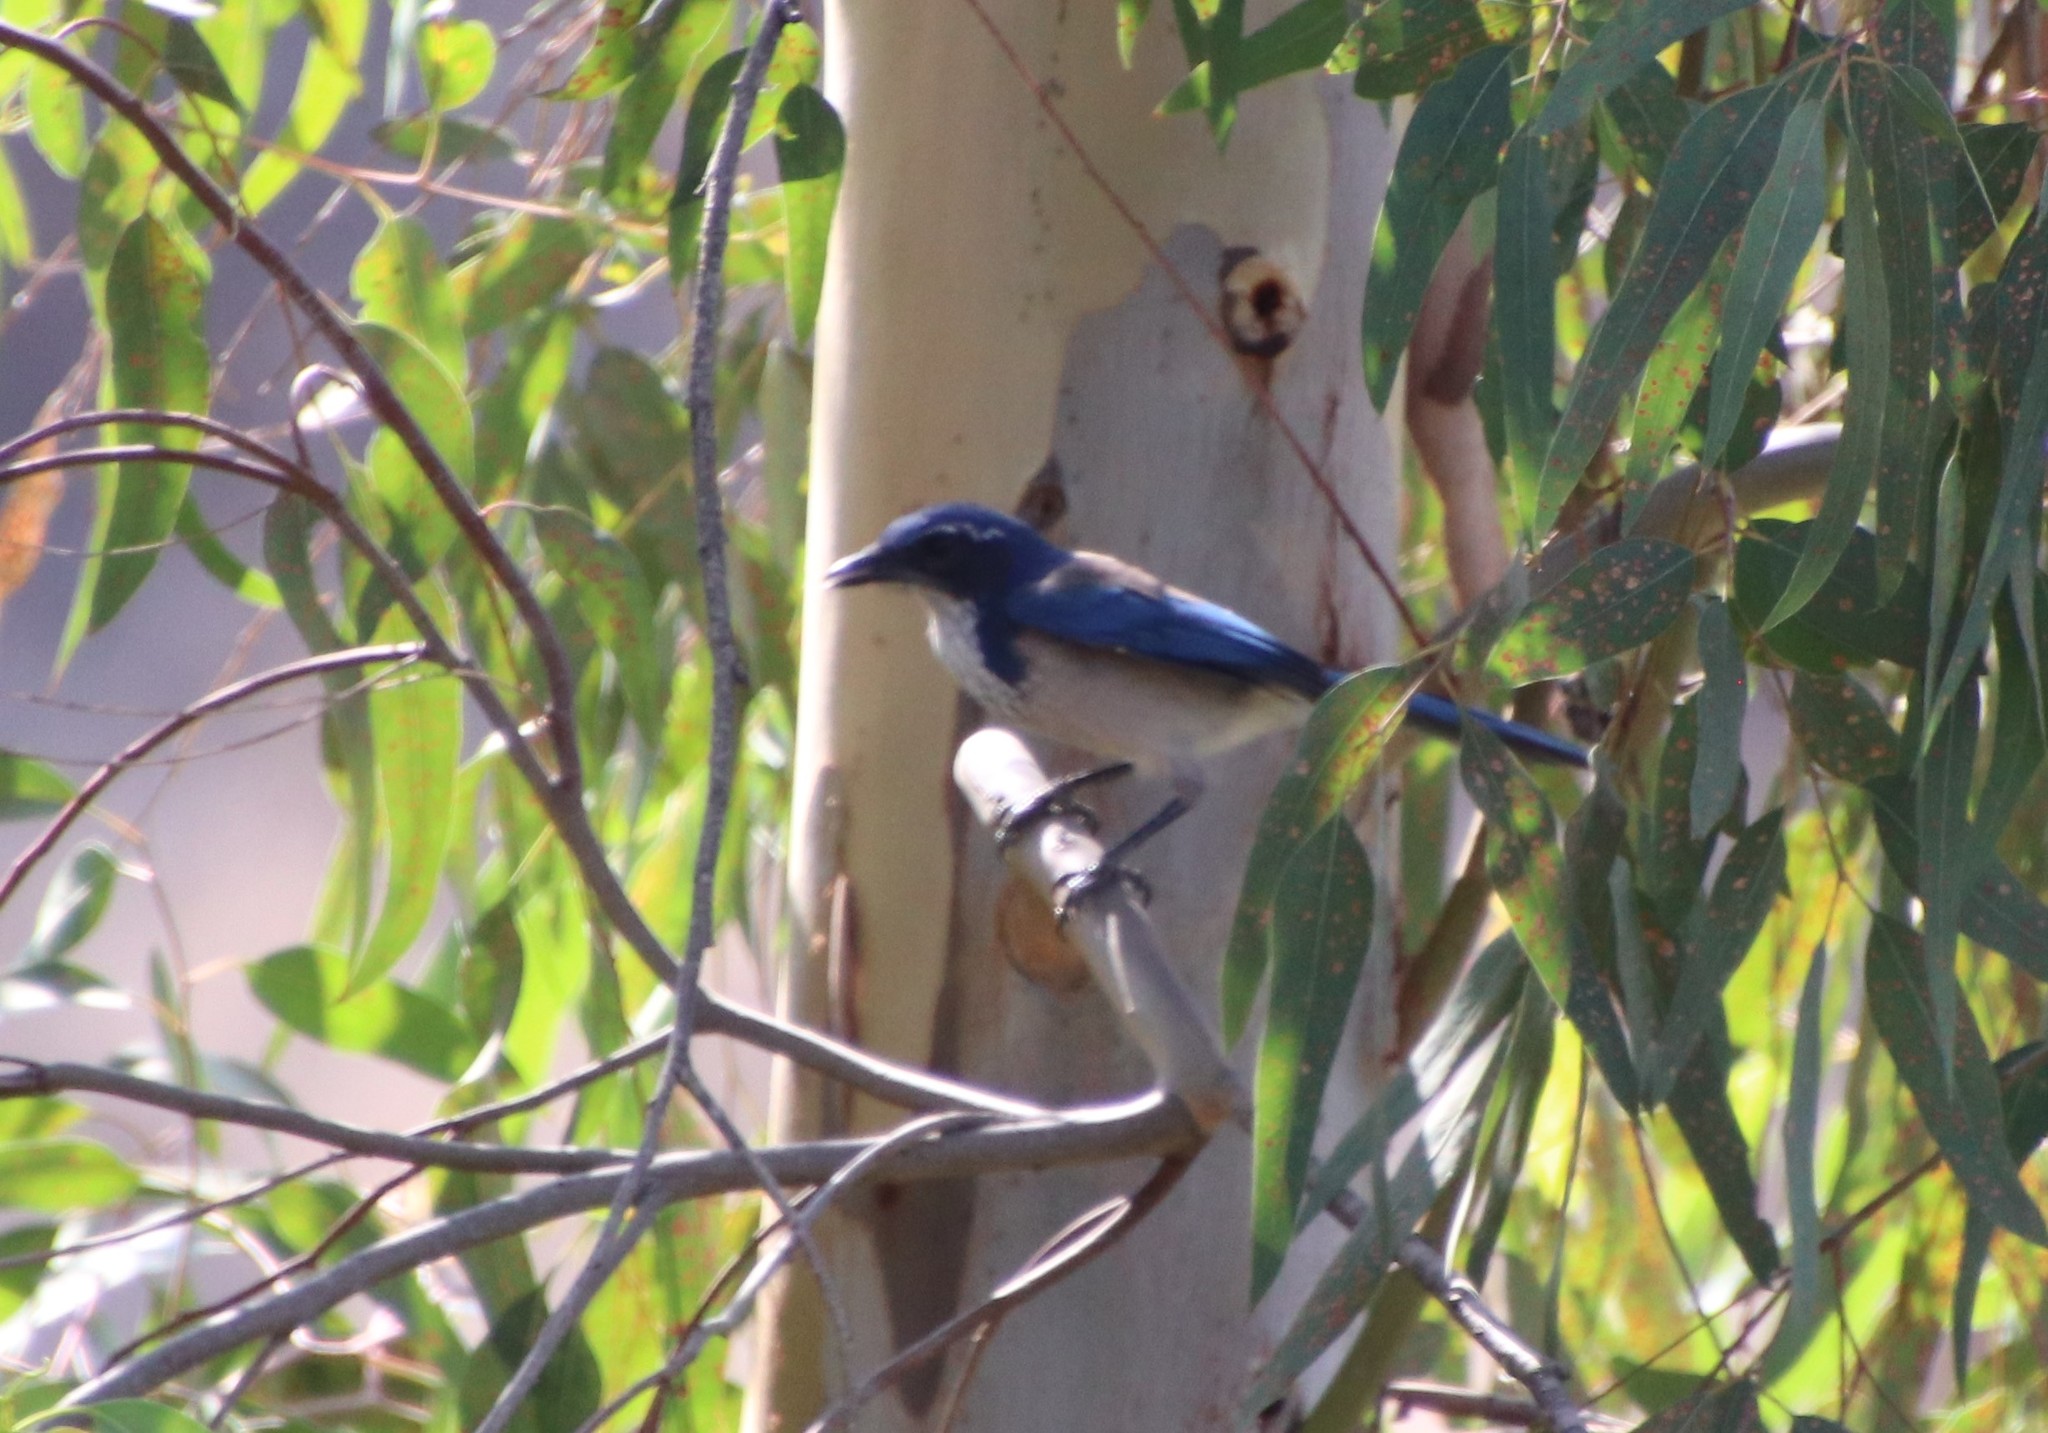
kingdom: Animalia
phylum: Chordata
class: Aves
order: Passeriformes
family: Corvidae
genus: Aphelocoma
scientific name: Aphelocoma californica
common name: California scrub-jay
